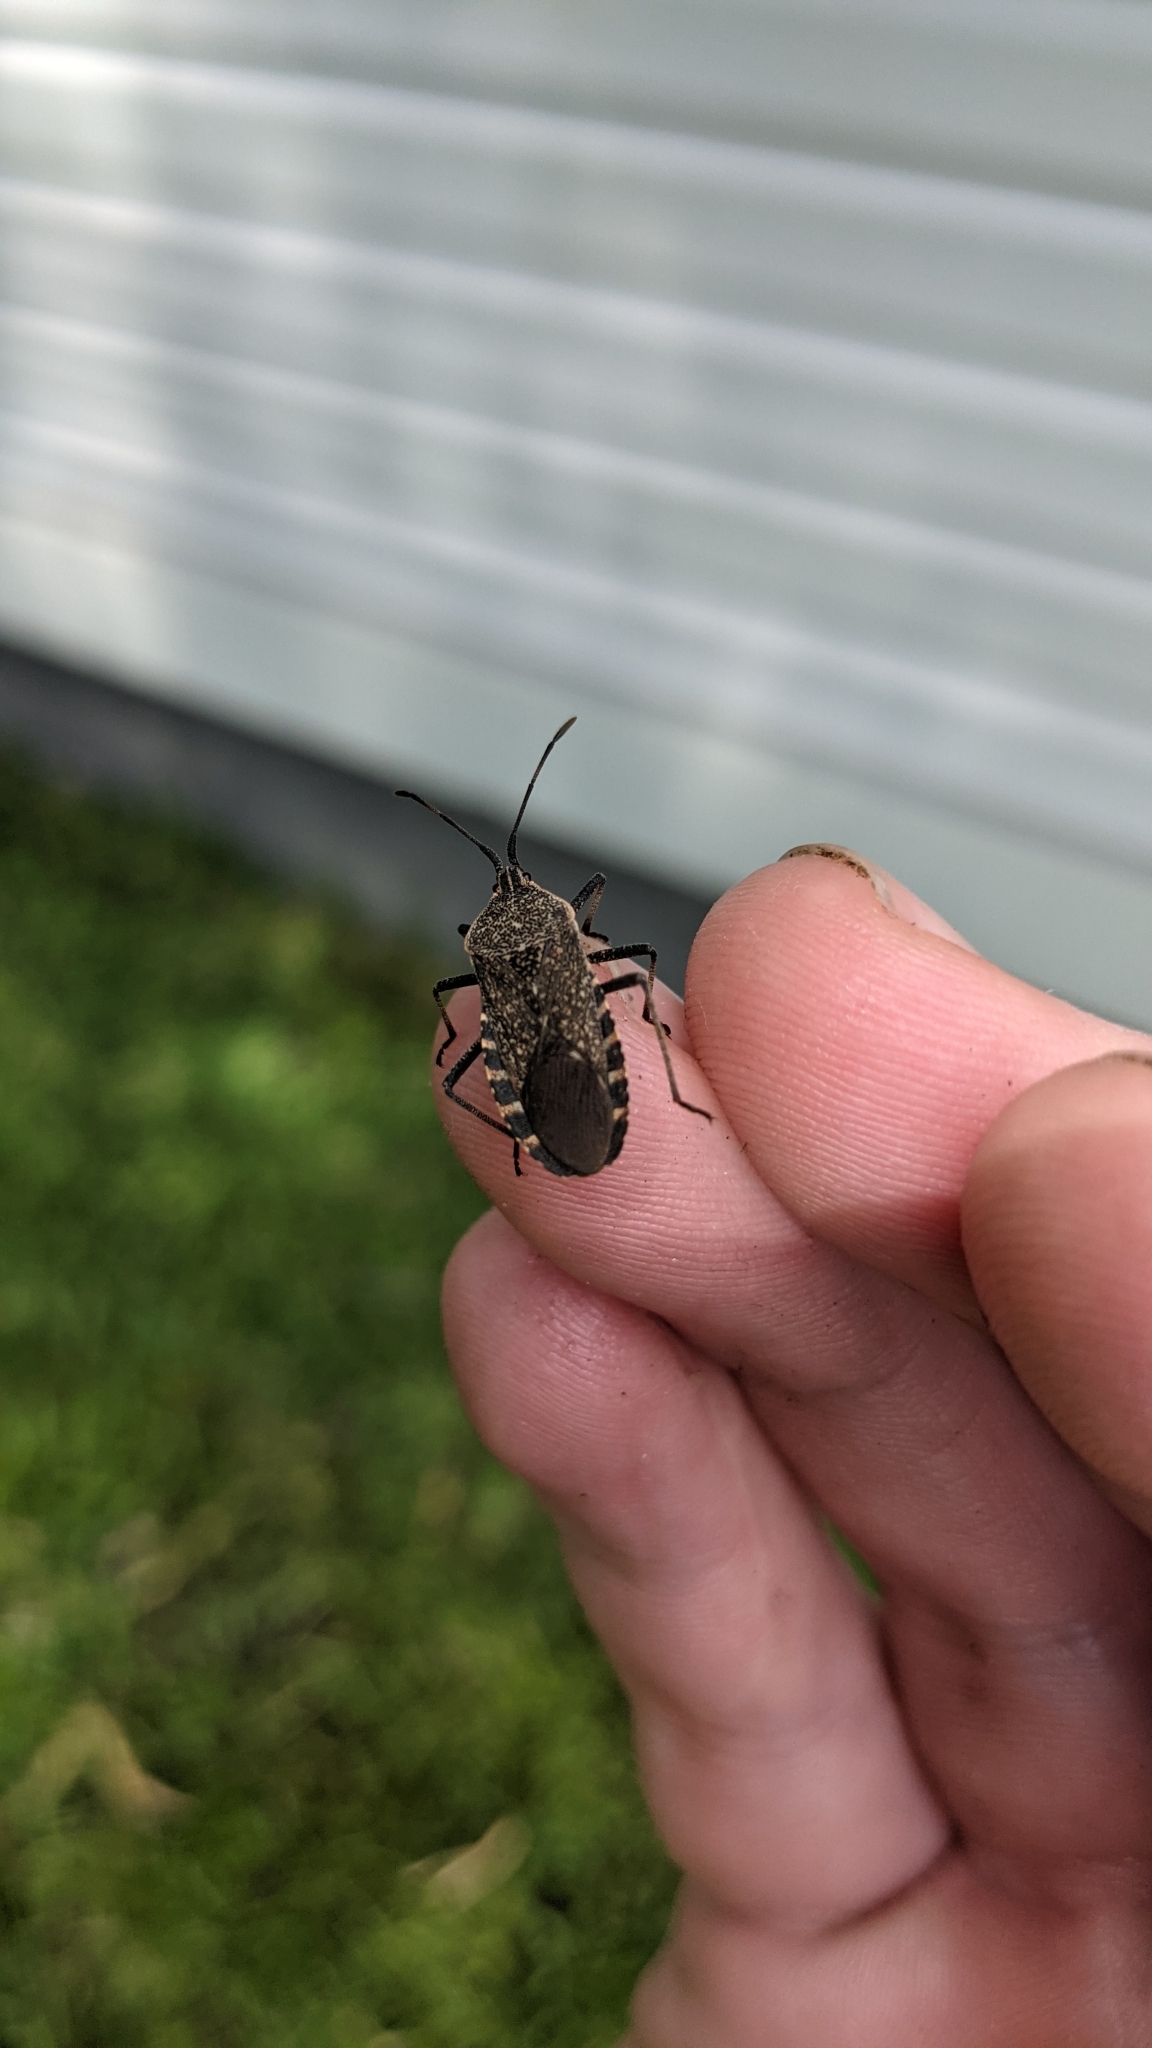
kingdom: Animalia
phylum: Arthropoda
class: Insecta
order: Hemiptera
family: Coreidae
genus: Anasa
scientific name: Anasa tristis
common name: Squash bug
